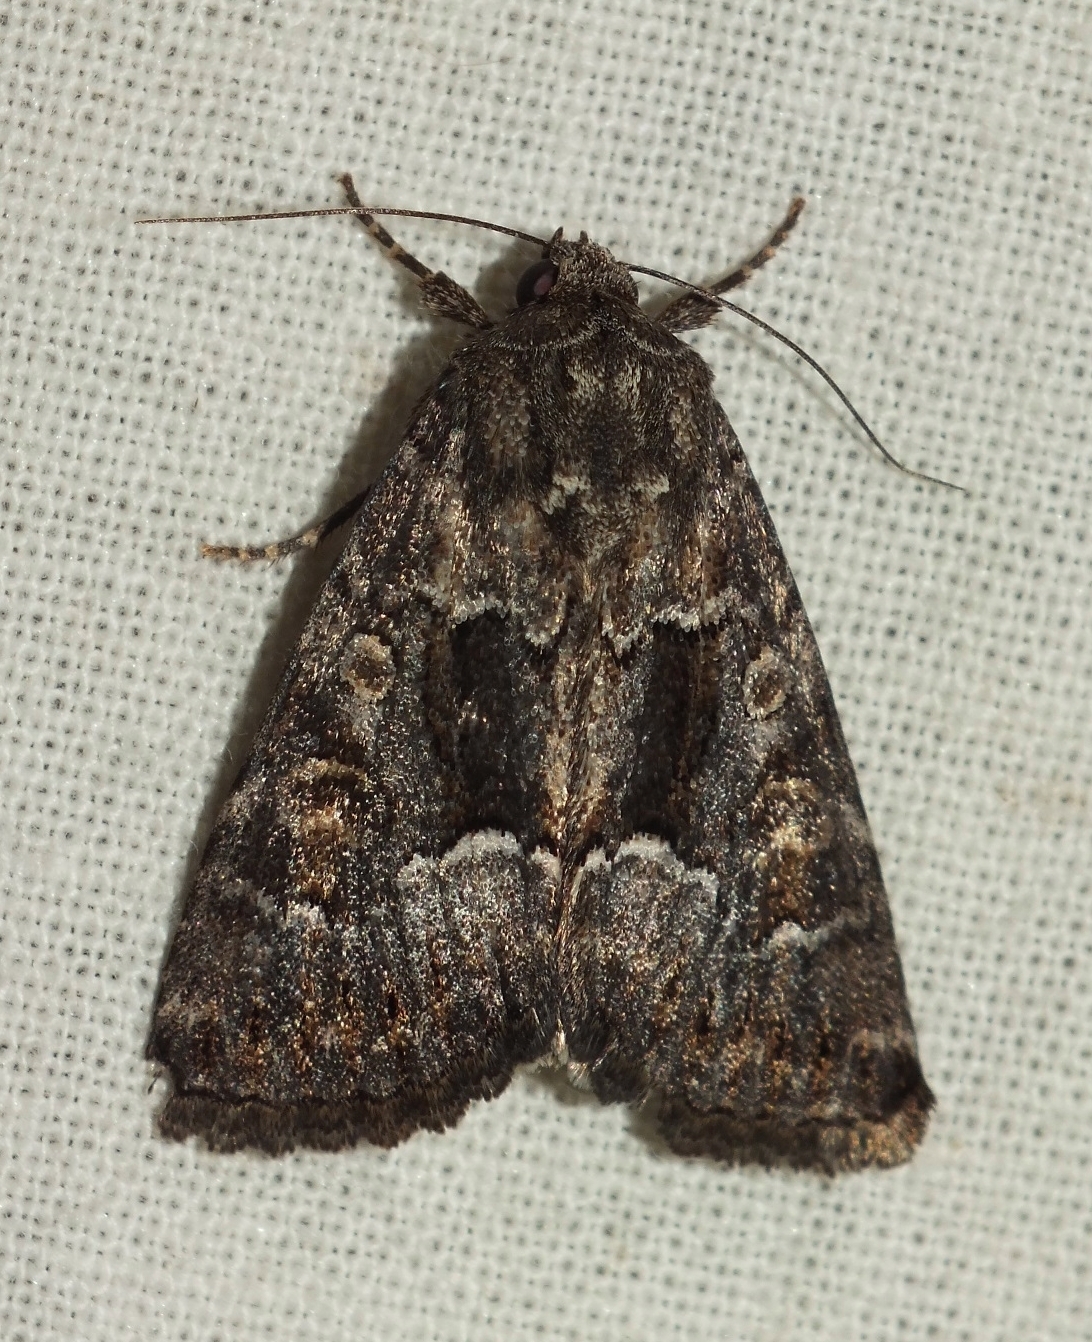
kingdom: Animalia
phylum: Arthropoda
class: Insecta
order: Lepidoptera
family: Noctuidae
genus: Thalpophila
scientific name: Thalpophila matura
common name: Straw underwing
